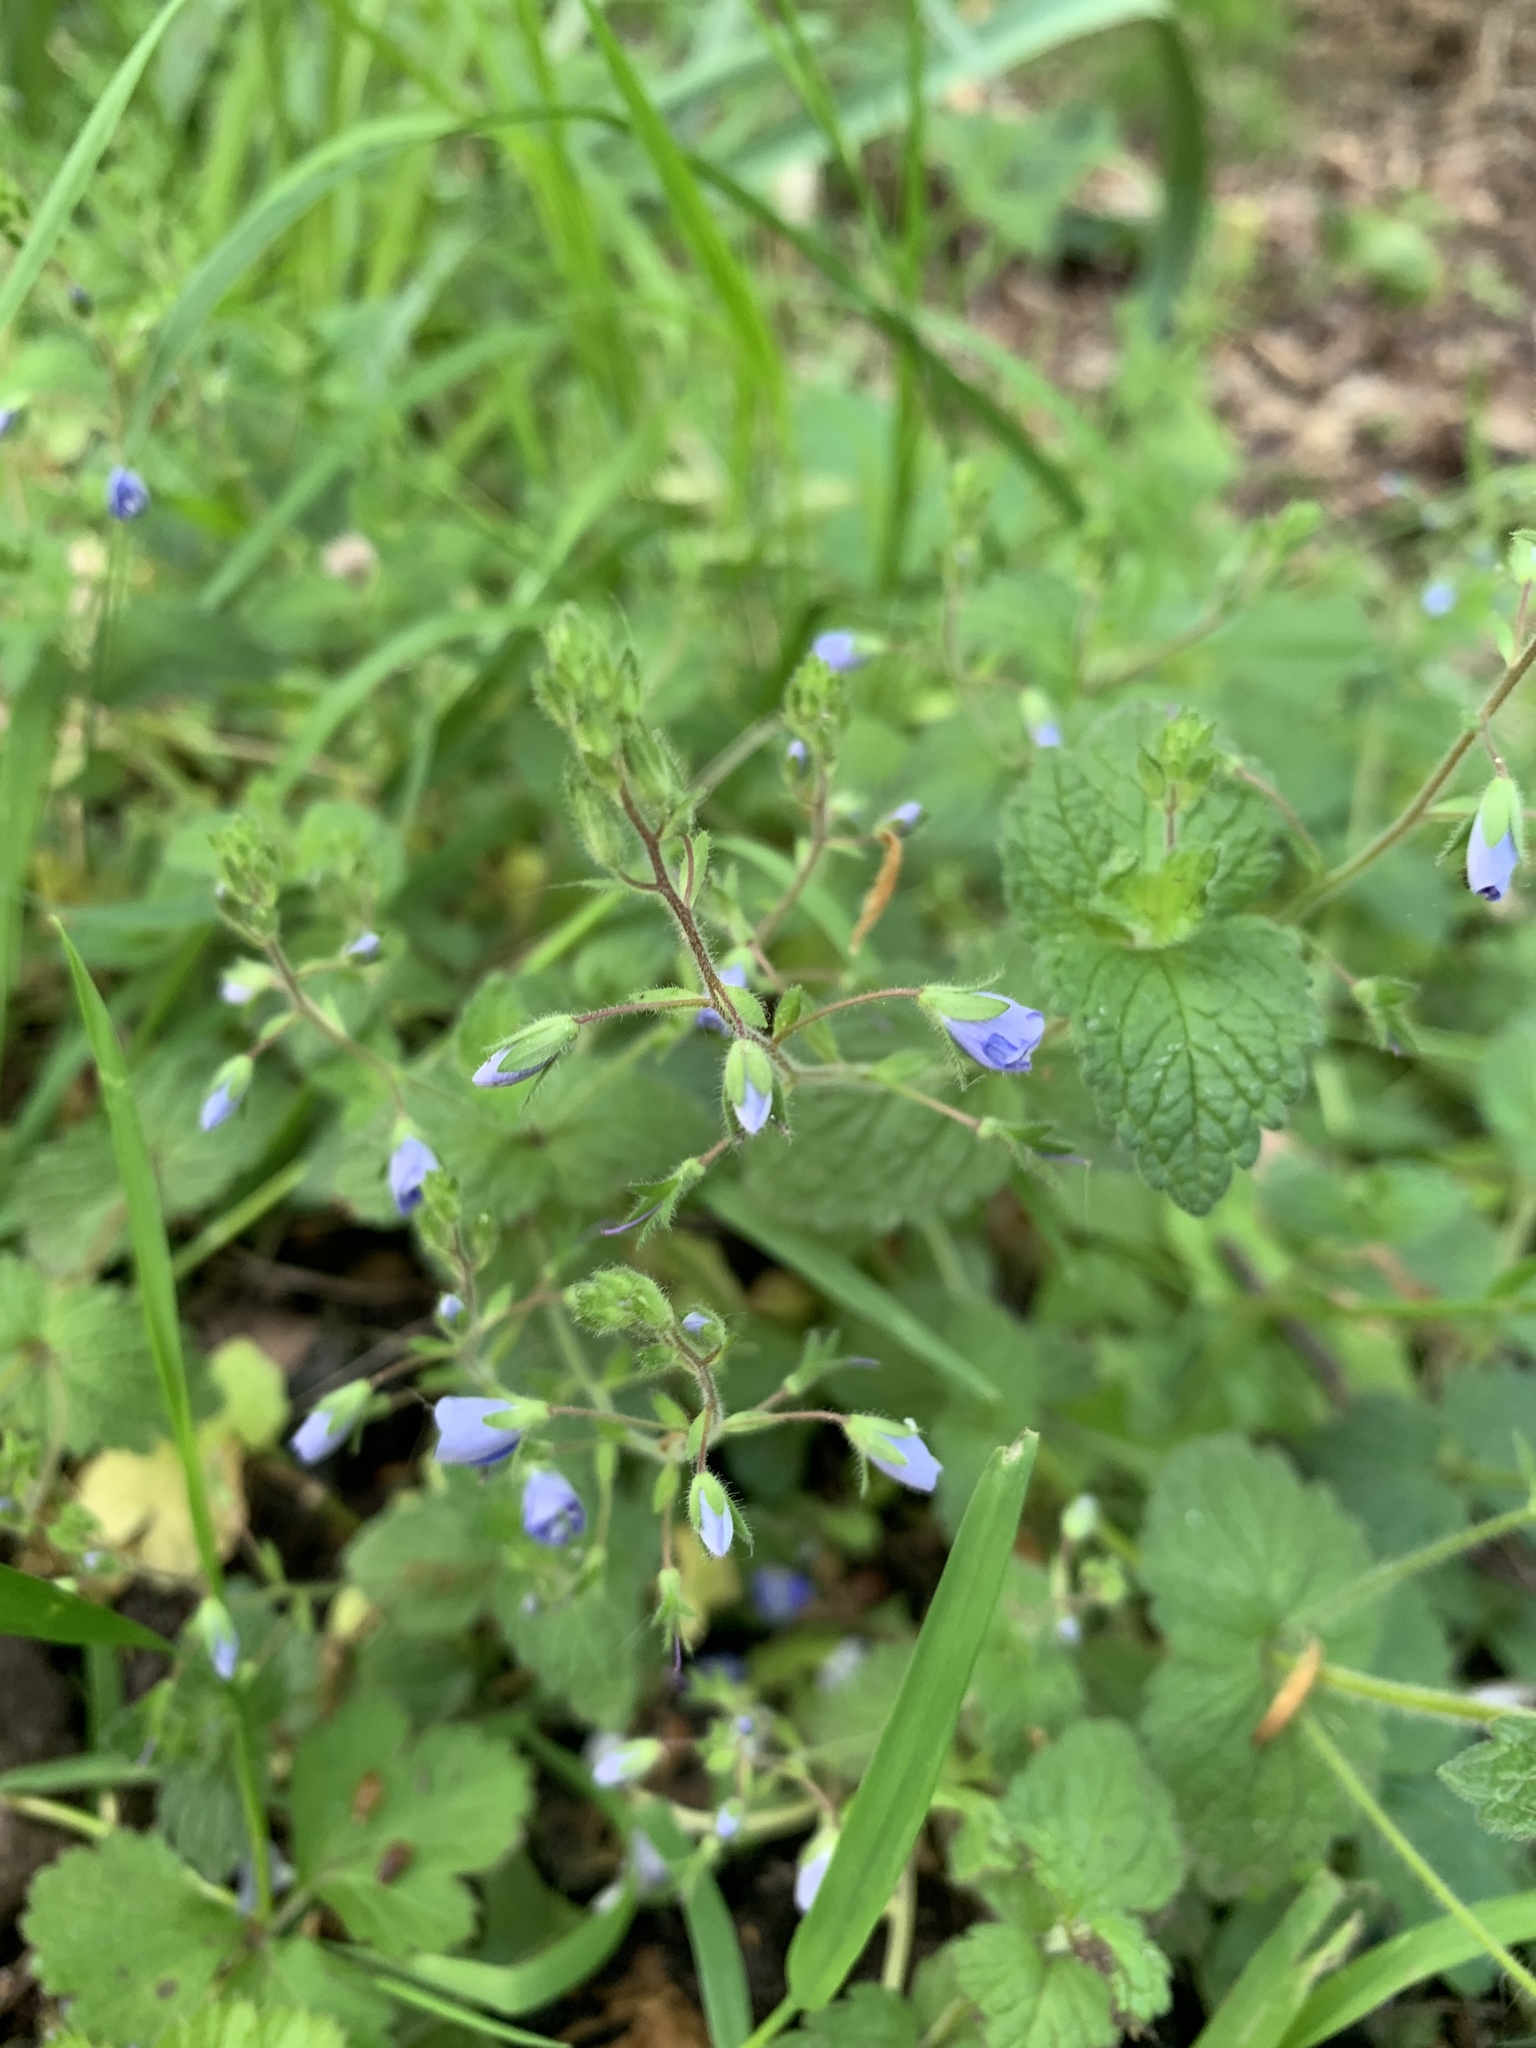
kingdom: Plantae
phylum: Tracheophyta
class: Magnoliopsida
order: Lamiales
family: Plantaginaceae
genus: Veronica
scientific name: Veronica chamaedrys
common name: Germander speedwell
